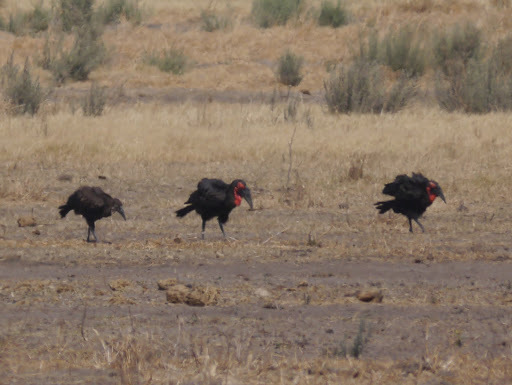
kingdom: Animalia
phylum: Chordata
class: Aves
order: Bucerotiformes
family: Bucorvidae
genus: Bucorvus
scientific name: Bucorvus leadbeateri
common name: Southern ground-hornbill
